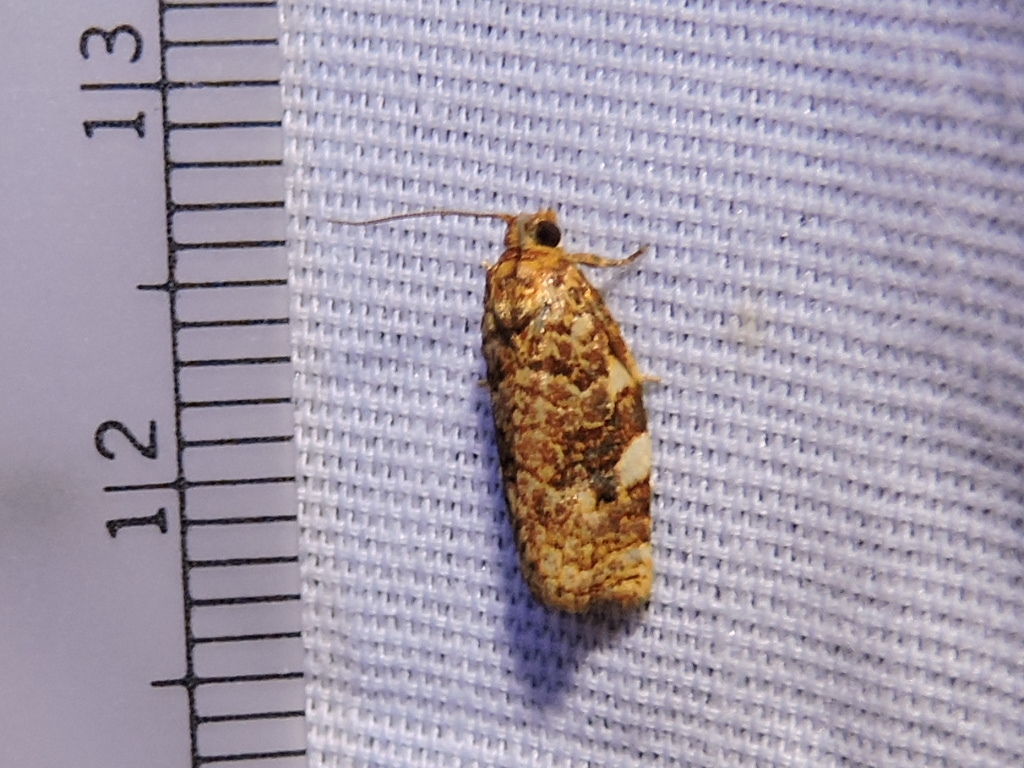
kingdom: Animalia
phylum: Arthropoda
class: Insecta
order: Lepidoptera
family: Tortricidae
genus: Archips
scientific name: Archips argyrospila
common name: Fruit-tree leafroller moth
